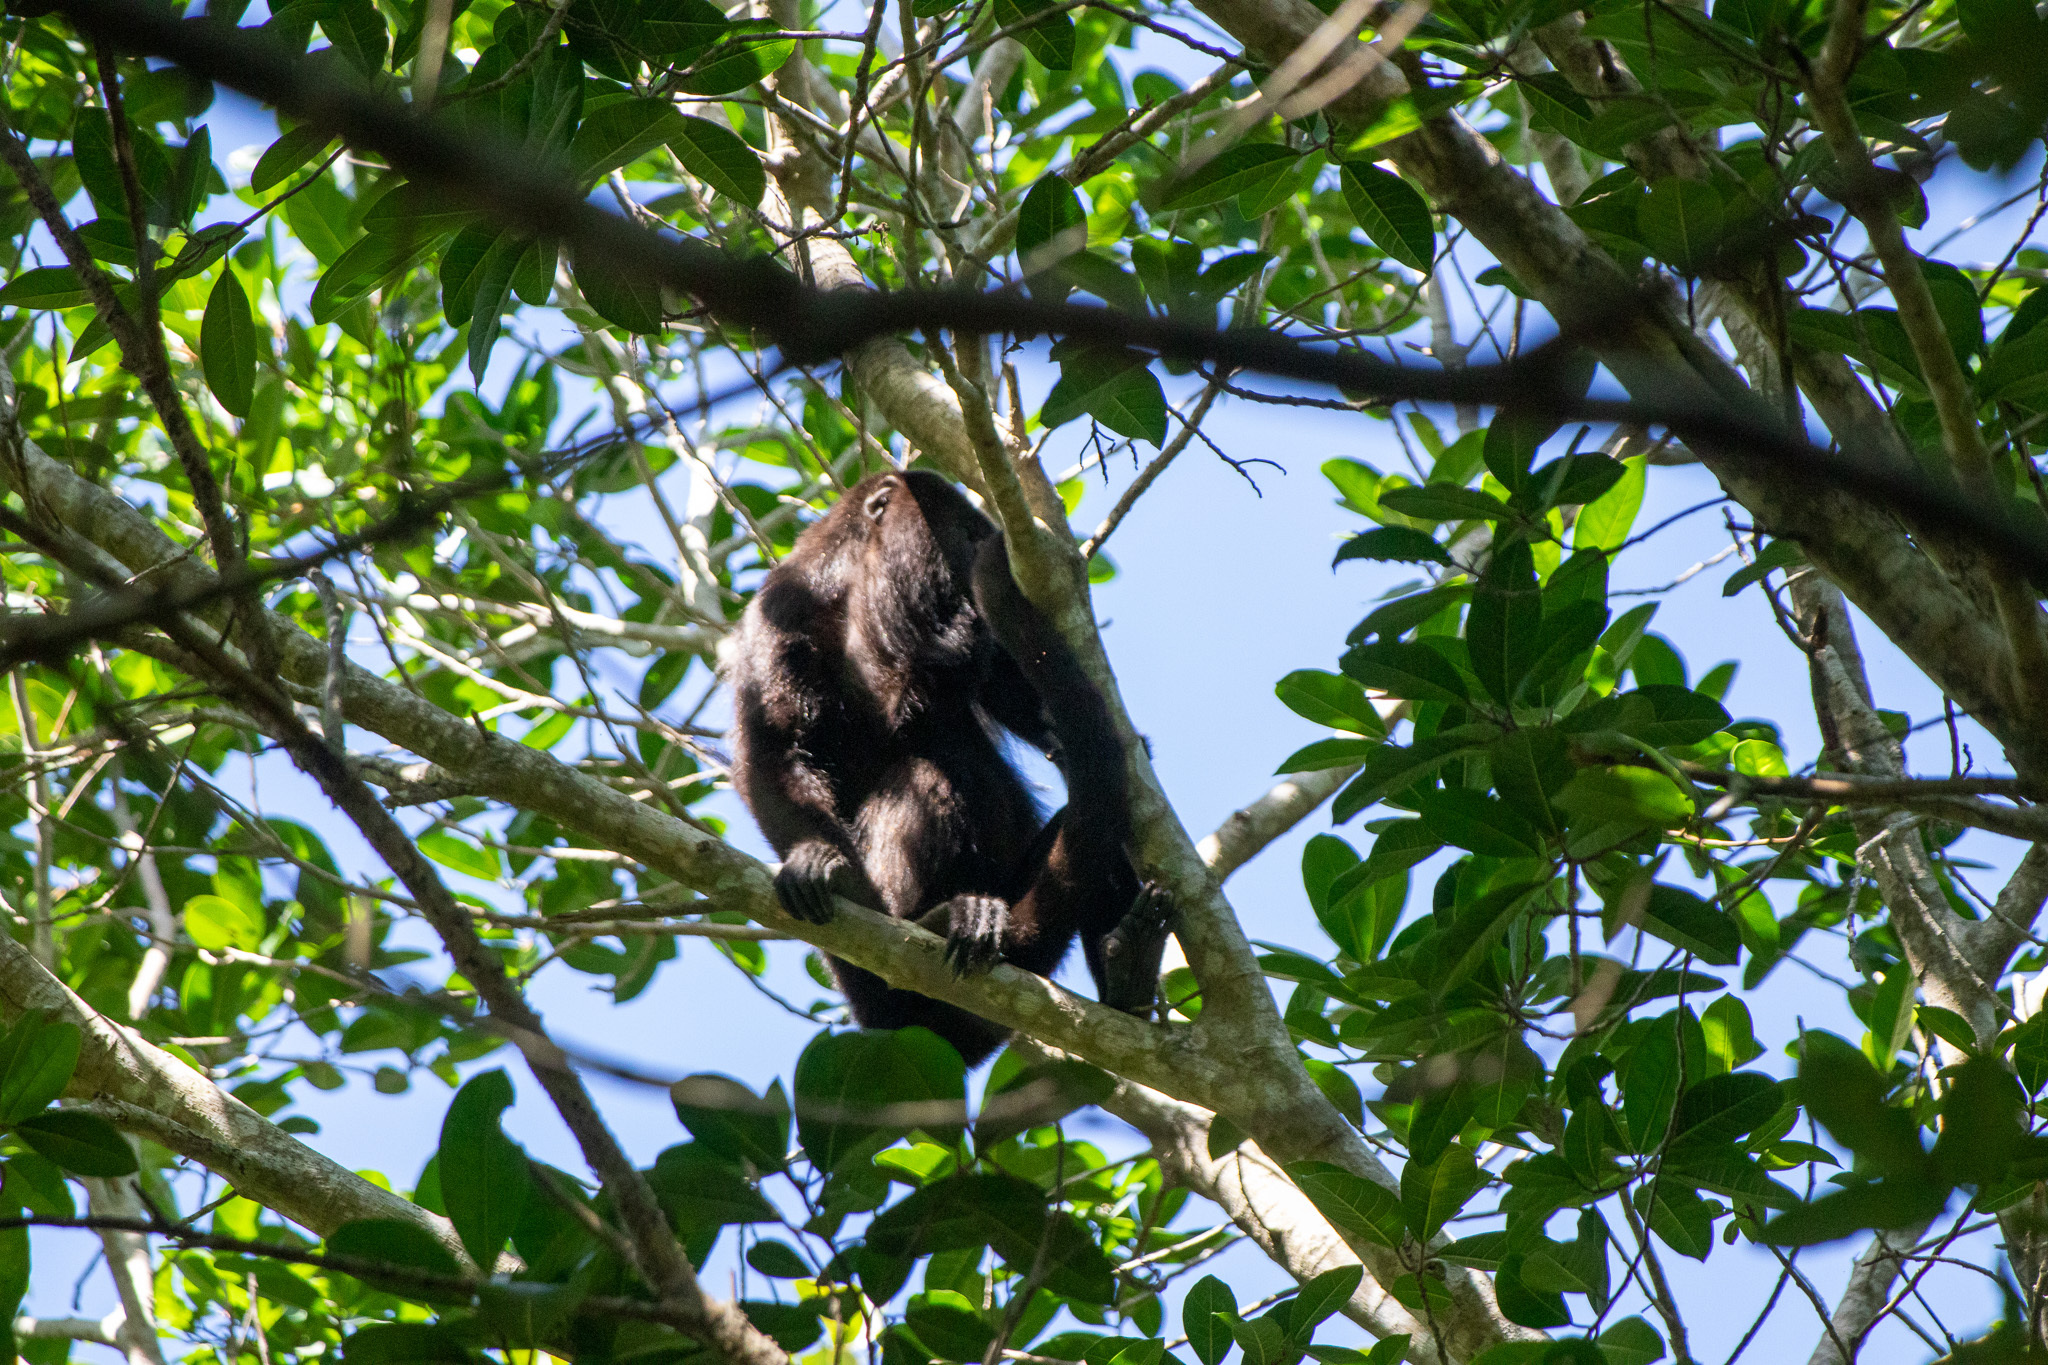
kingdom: Animalia
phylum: Chordata
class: Mammalia
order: Primates
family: Atelidae
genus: Alouatta
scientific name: Alouatta pigra
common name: Guatemalan black howler
